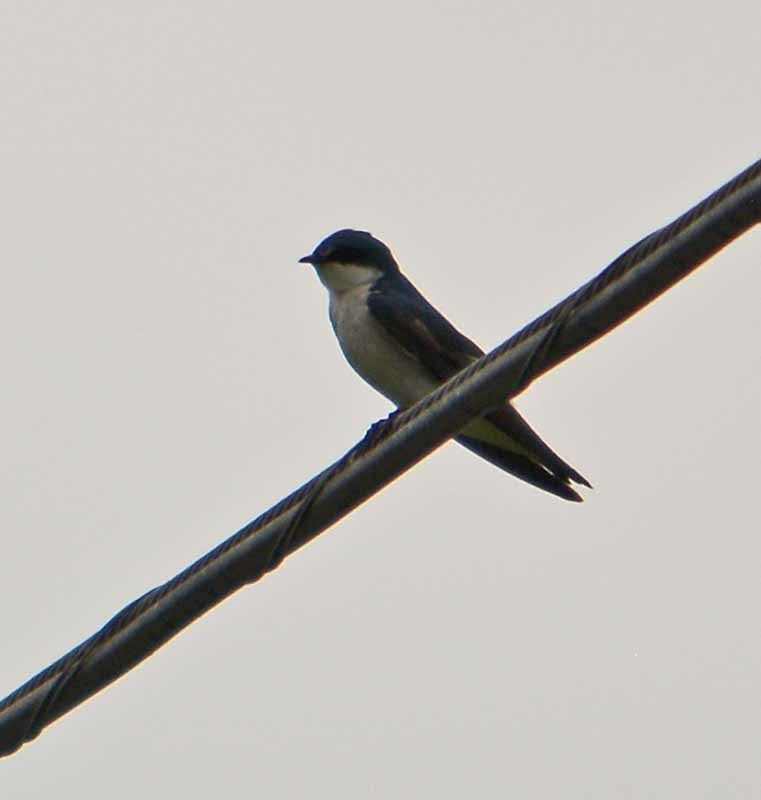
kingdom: Animalia
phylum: Chordata
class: Aves
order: Passeriformes
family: Hirundinidae
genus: Tachycineta
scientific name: Tachycineta albilinea
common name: Mangrove swallow
